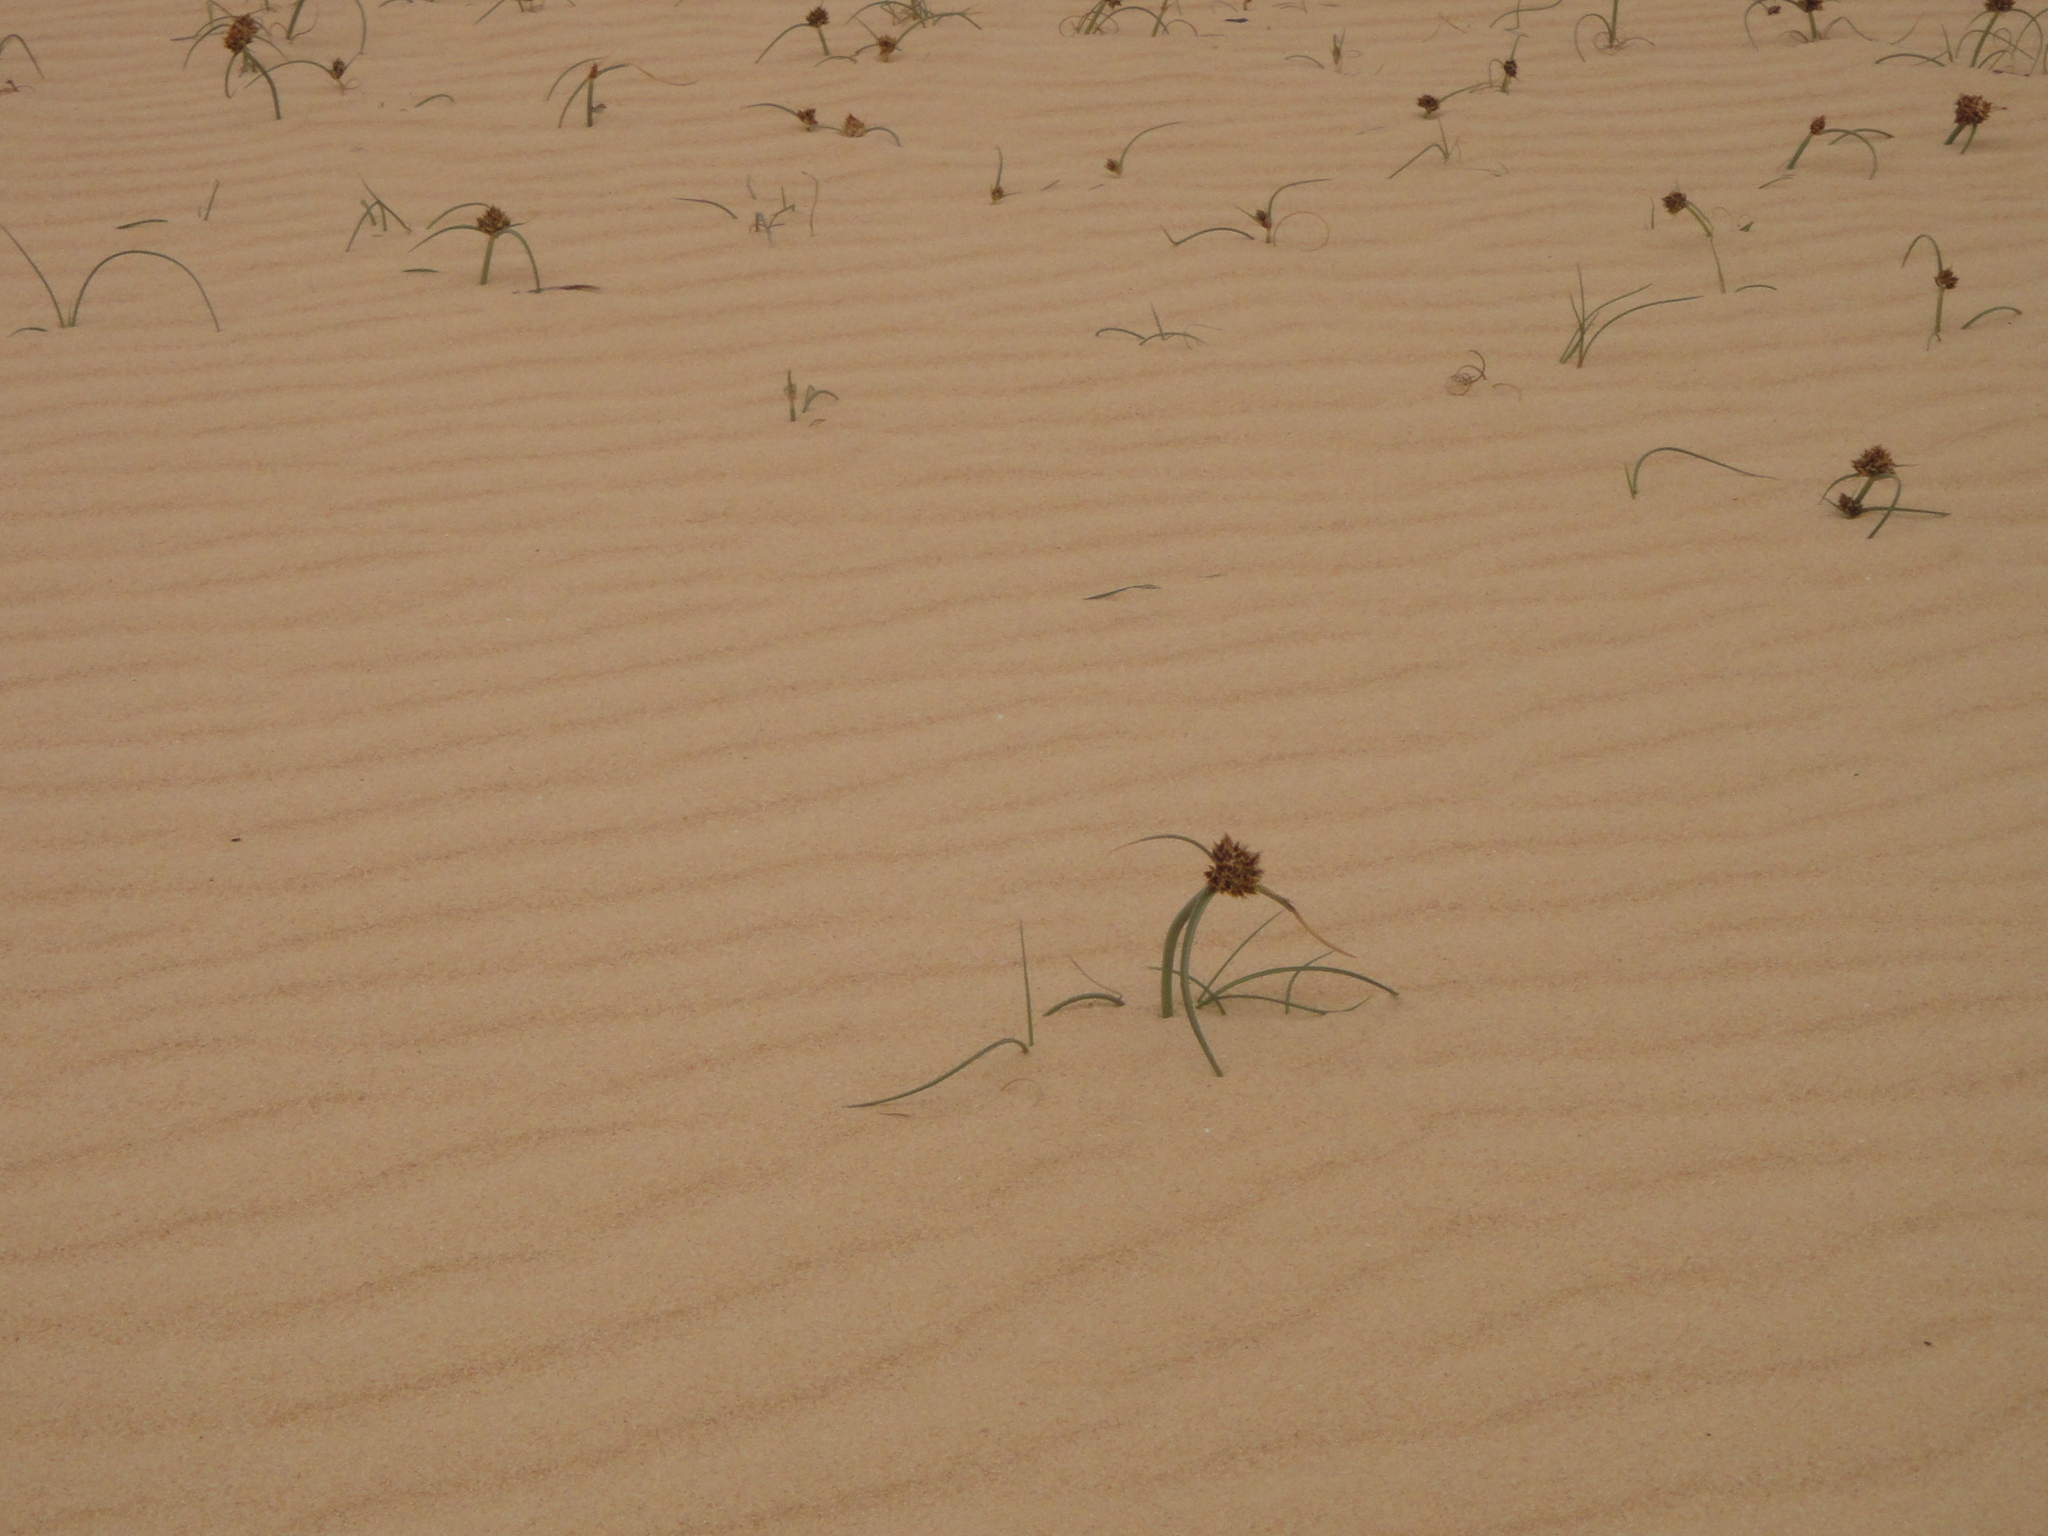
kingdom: Plantae
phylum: Tracheophyta
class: Liliopsida
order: Poales
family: Cyperaceae
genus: Cyperus
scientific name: Cyperus capitatus
